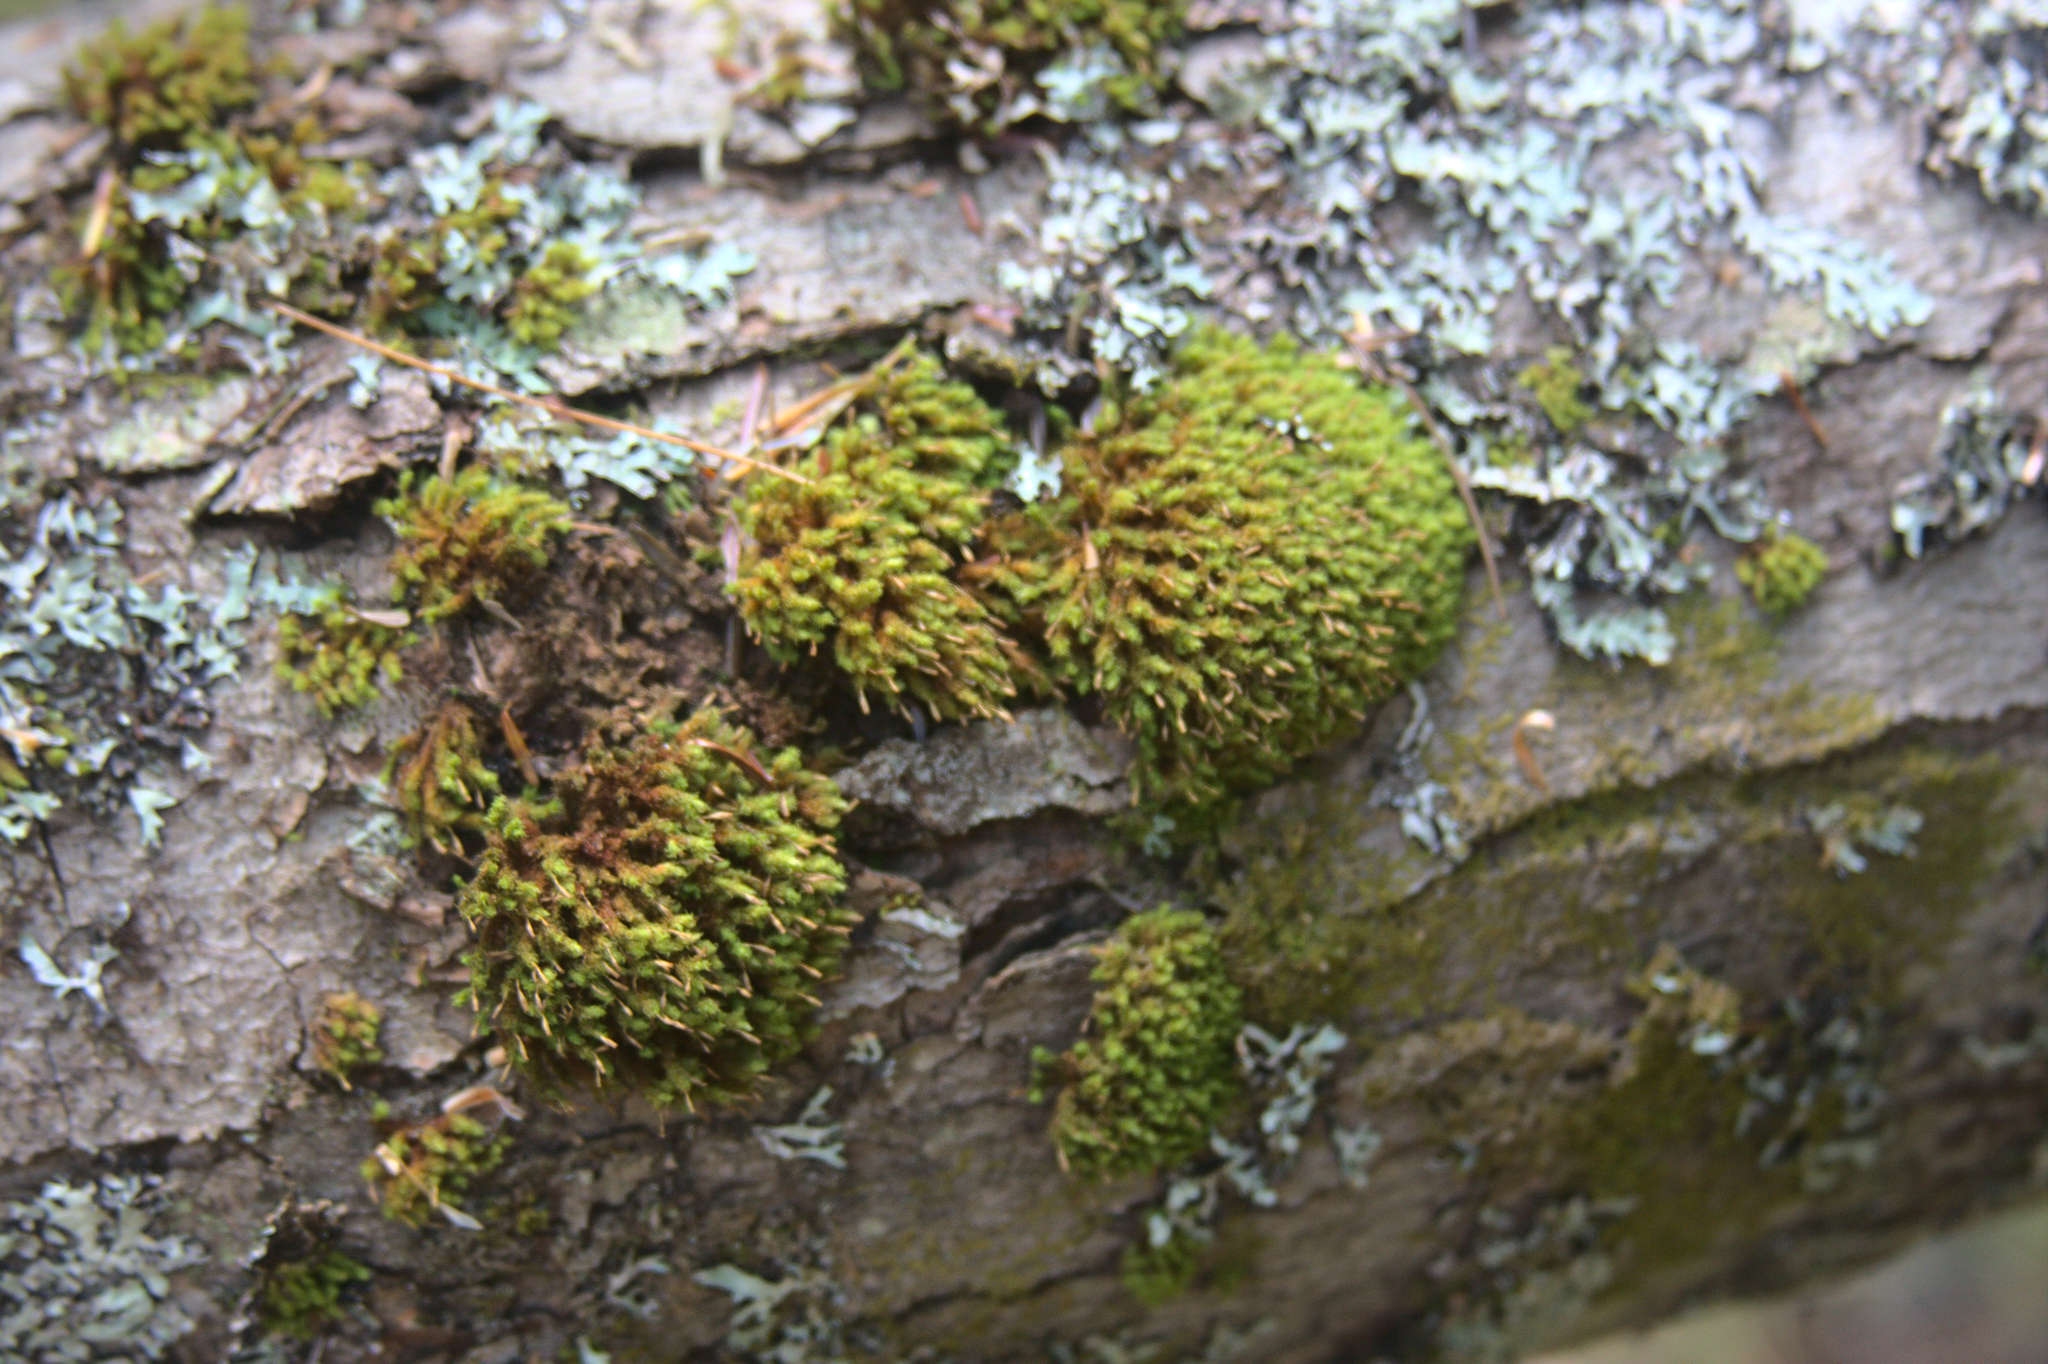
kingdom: Plantae
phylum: Bryophyta
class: Bryopsida
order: Orthotrichales
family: Orthotrichaceae
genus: Ulota
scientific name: Ulota crispa
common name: Crisped pincushion moss
